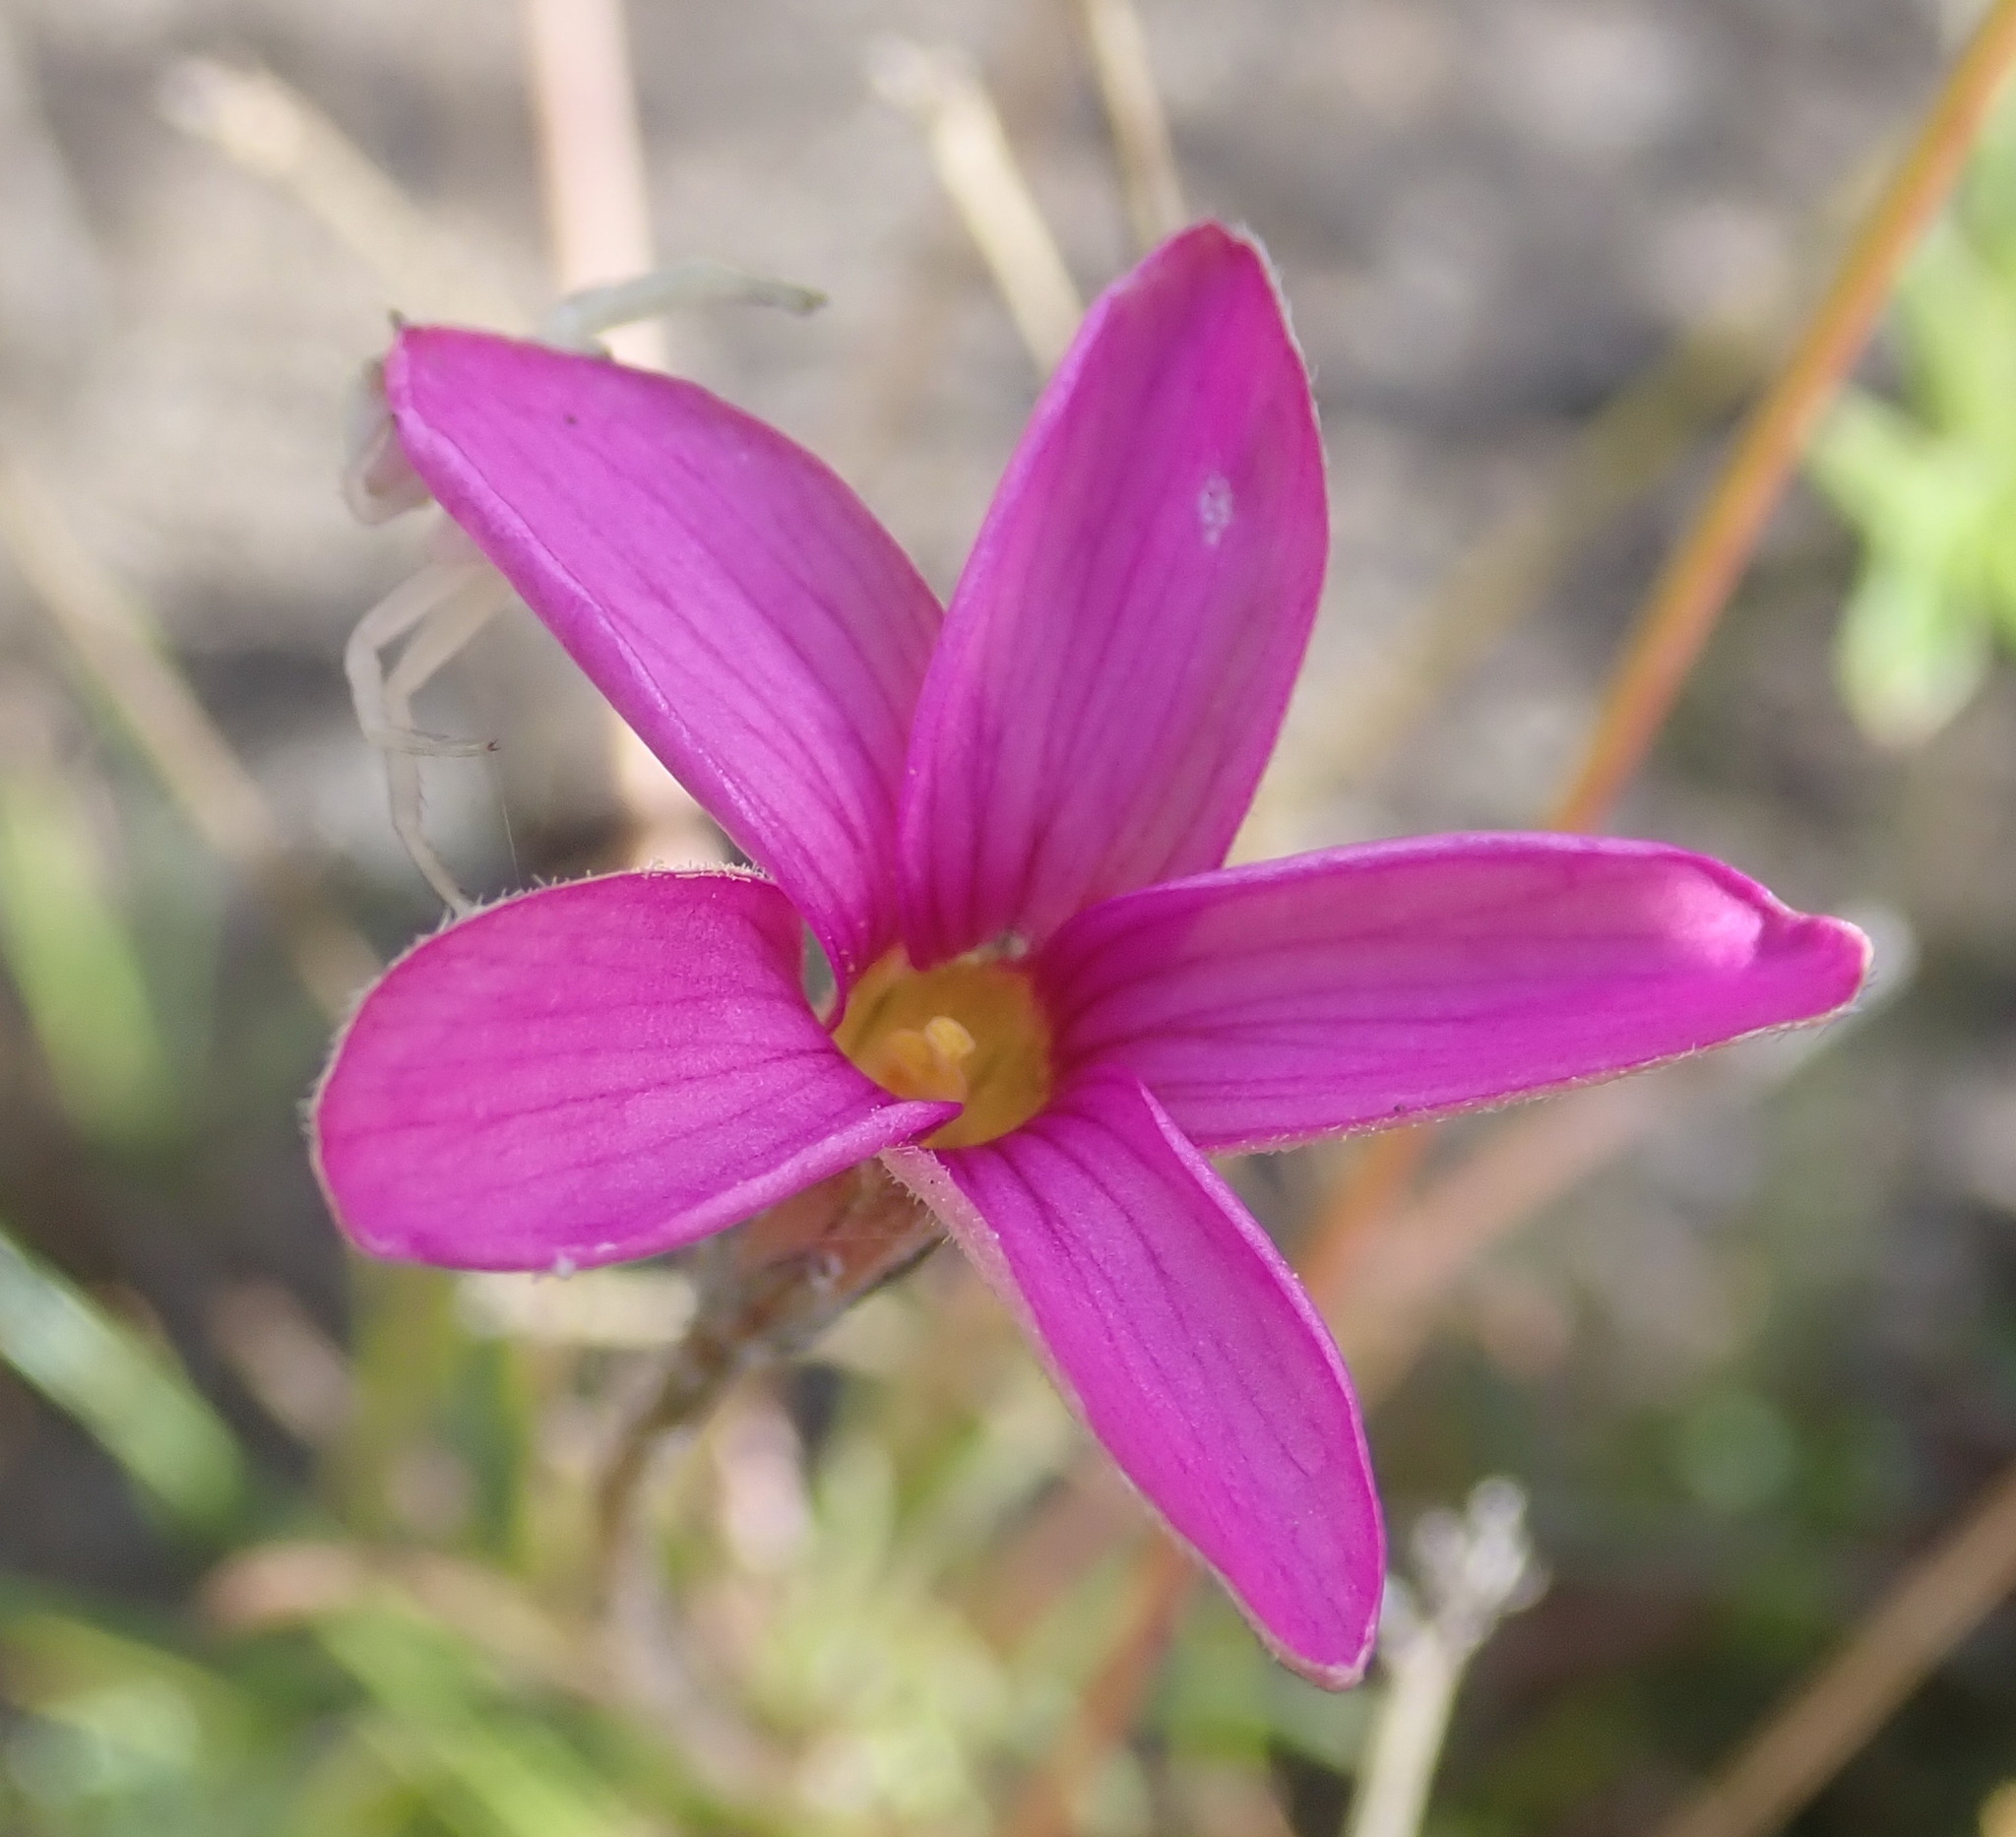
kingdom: Plantae
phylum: Tracheophyta
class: Magnoliopsida
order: Oxalidales
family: Oxalidaceae
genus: Oxalis
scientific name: Oxalis polyphylla
